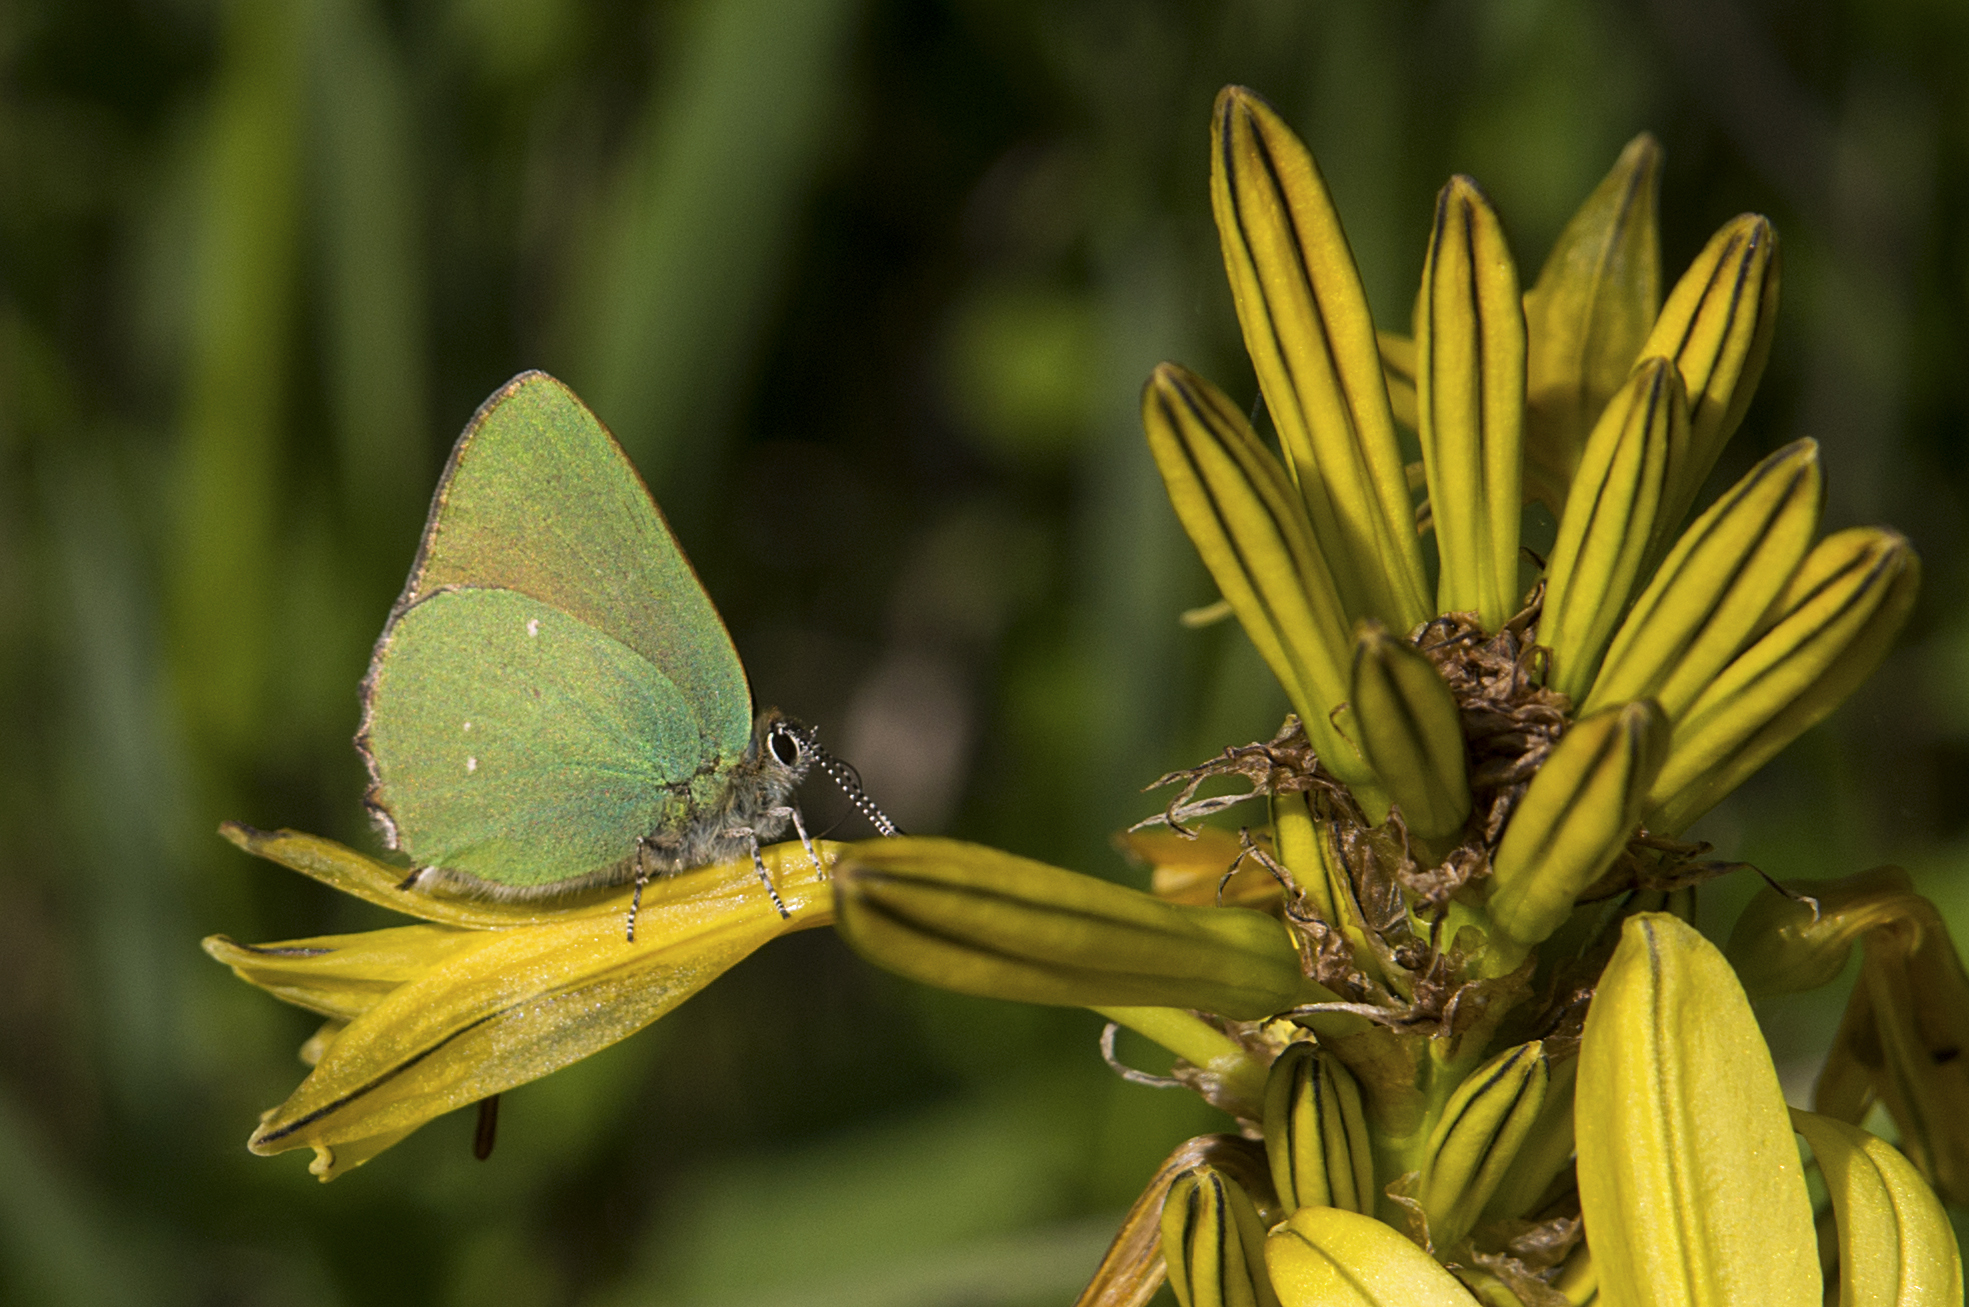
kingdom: Animalia
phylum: Arthropoda
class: Insecta
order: Lepidoptera
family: Lycaenidae
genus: Callophrys
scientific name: Callophrys rubi
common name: Green hairstreak
